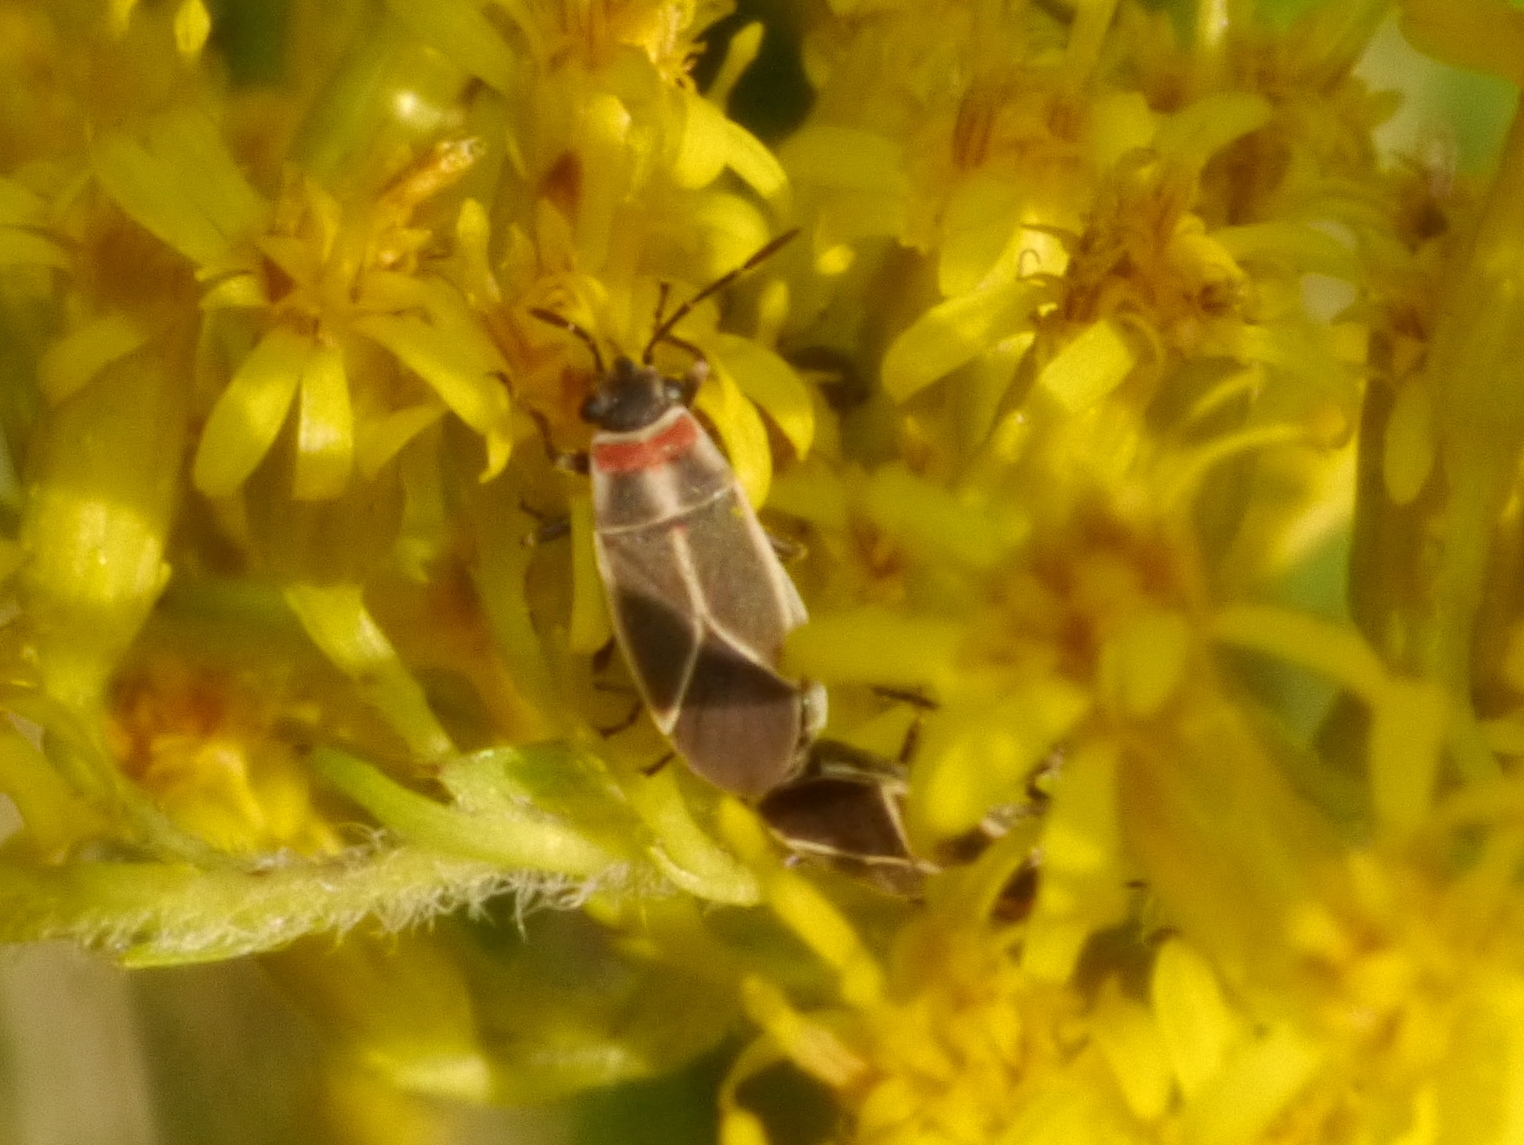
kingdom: Animalia
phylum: Arthropoda
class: Insecta
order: Hemiptera
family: Lygaeidae
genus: Ochrimnus
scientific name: Ochrimnus mimulus
